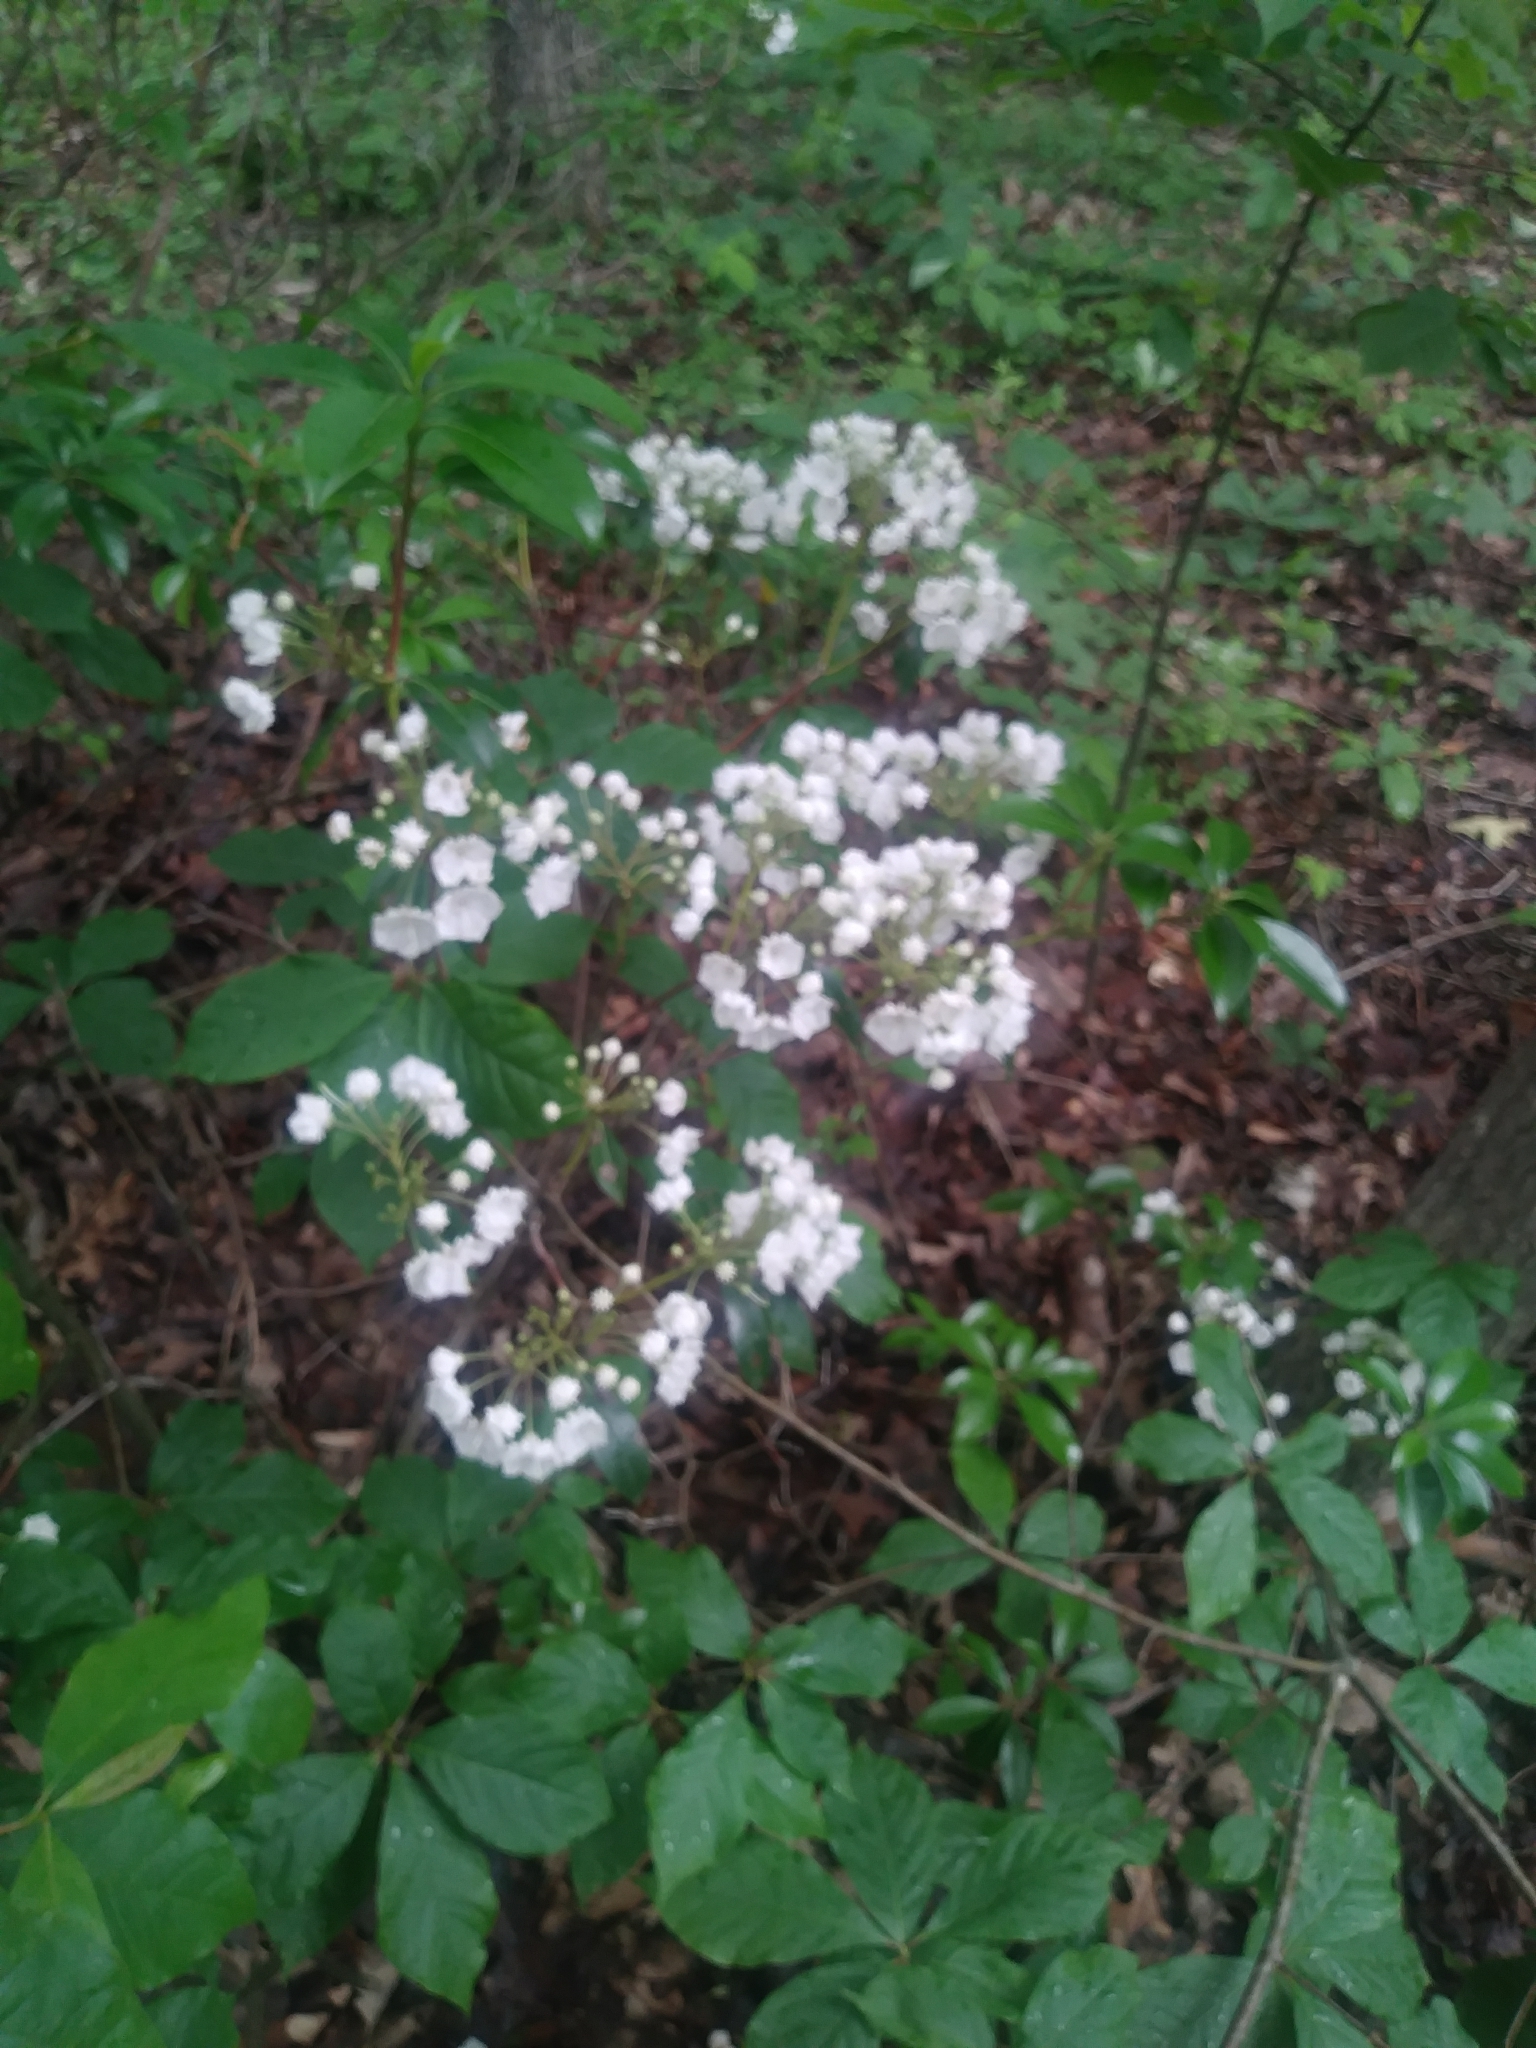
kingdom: Plantae
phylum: Tracheophyta
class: Magnoliopsida
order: Ericales
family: Ericaceae
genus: Kalmia
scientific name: Kalmia latifolia
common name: Mountain-laurel
